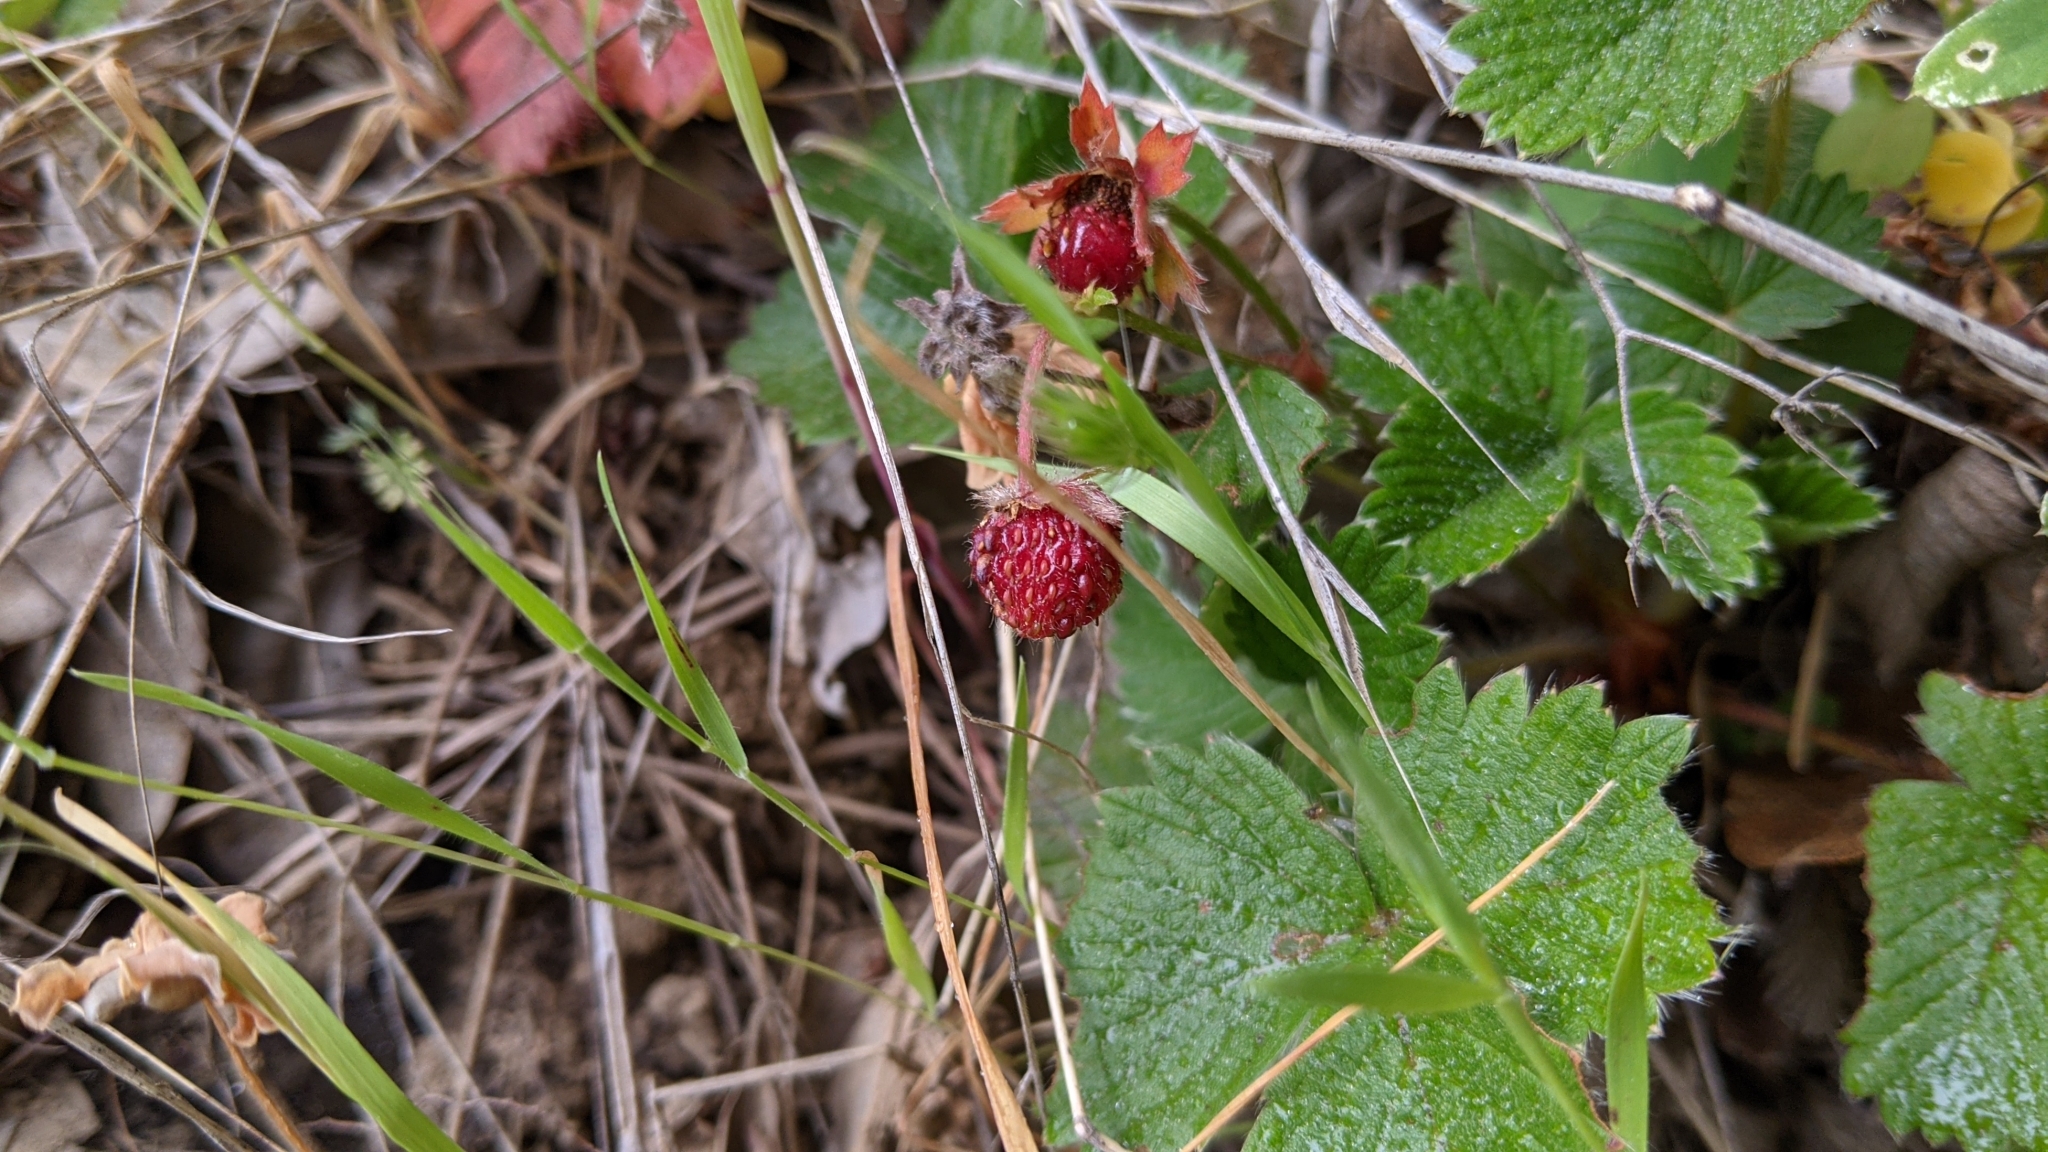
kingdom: Plantae
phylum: Tracheophyta
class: Magnoliopsida
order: Rosales
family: Rosaceae
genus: Fragaria
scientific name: Fragaria vesca
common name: Wild strawberry
